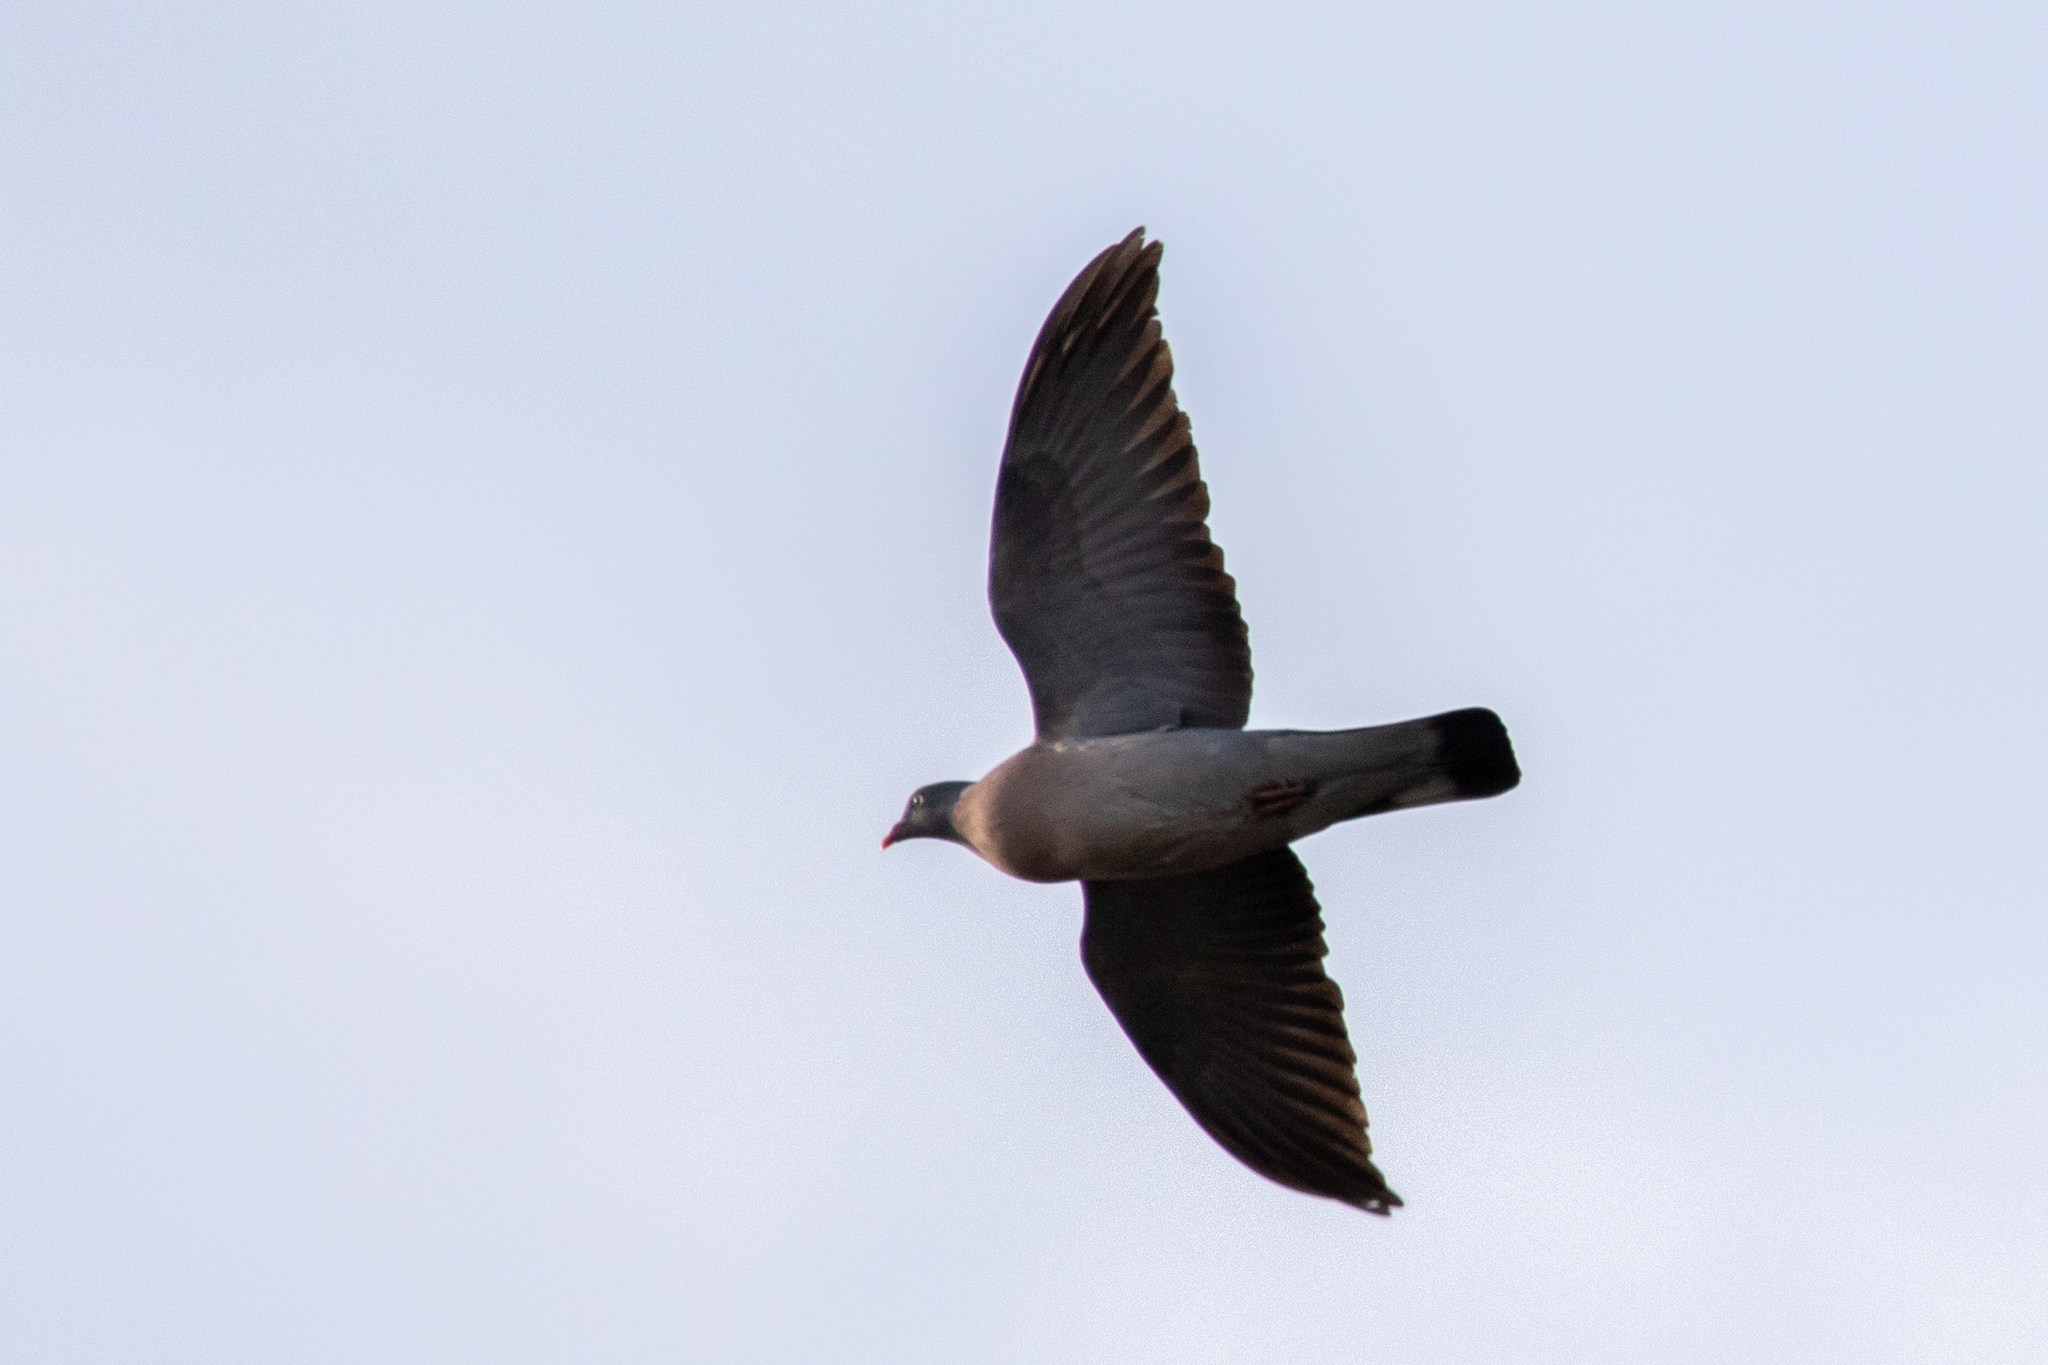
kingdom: Animalia
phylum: Chordata
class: Aves
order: Columbiformes
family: Columbidae
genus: Columba
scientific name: Columba palumbus
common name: Common wood pigeon
